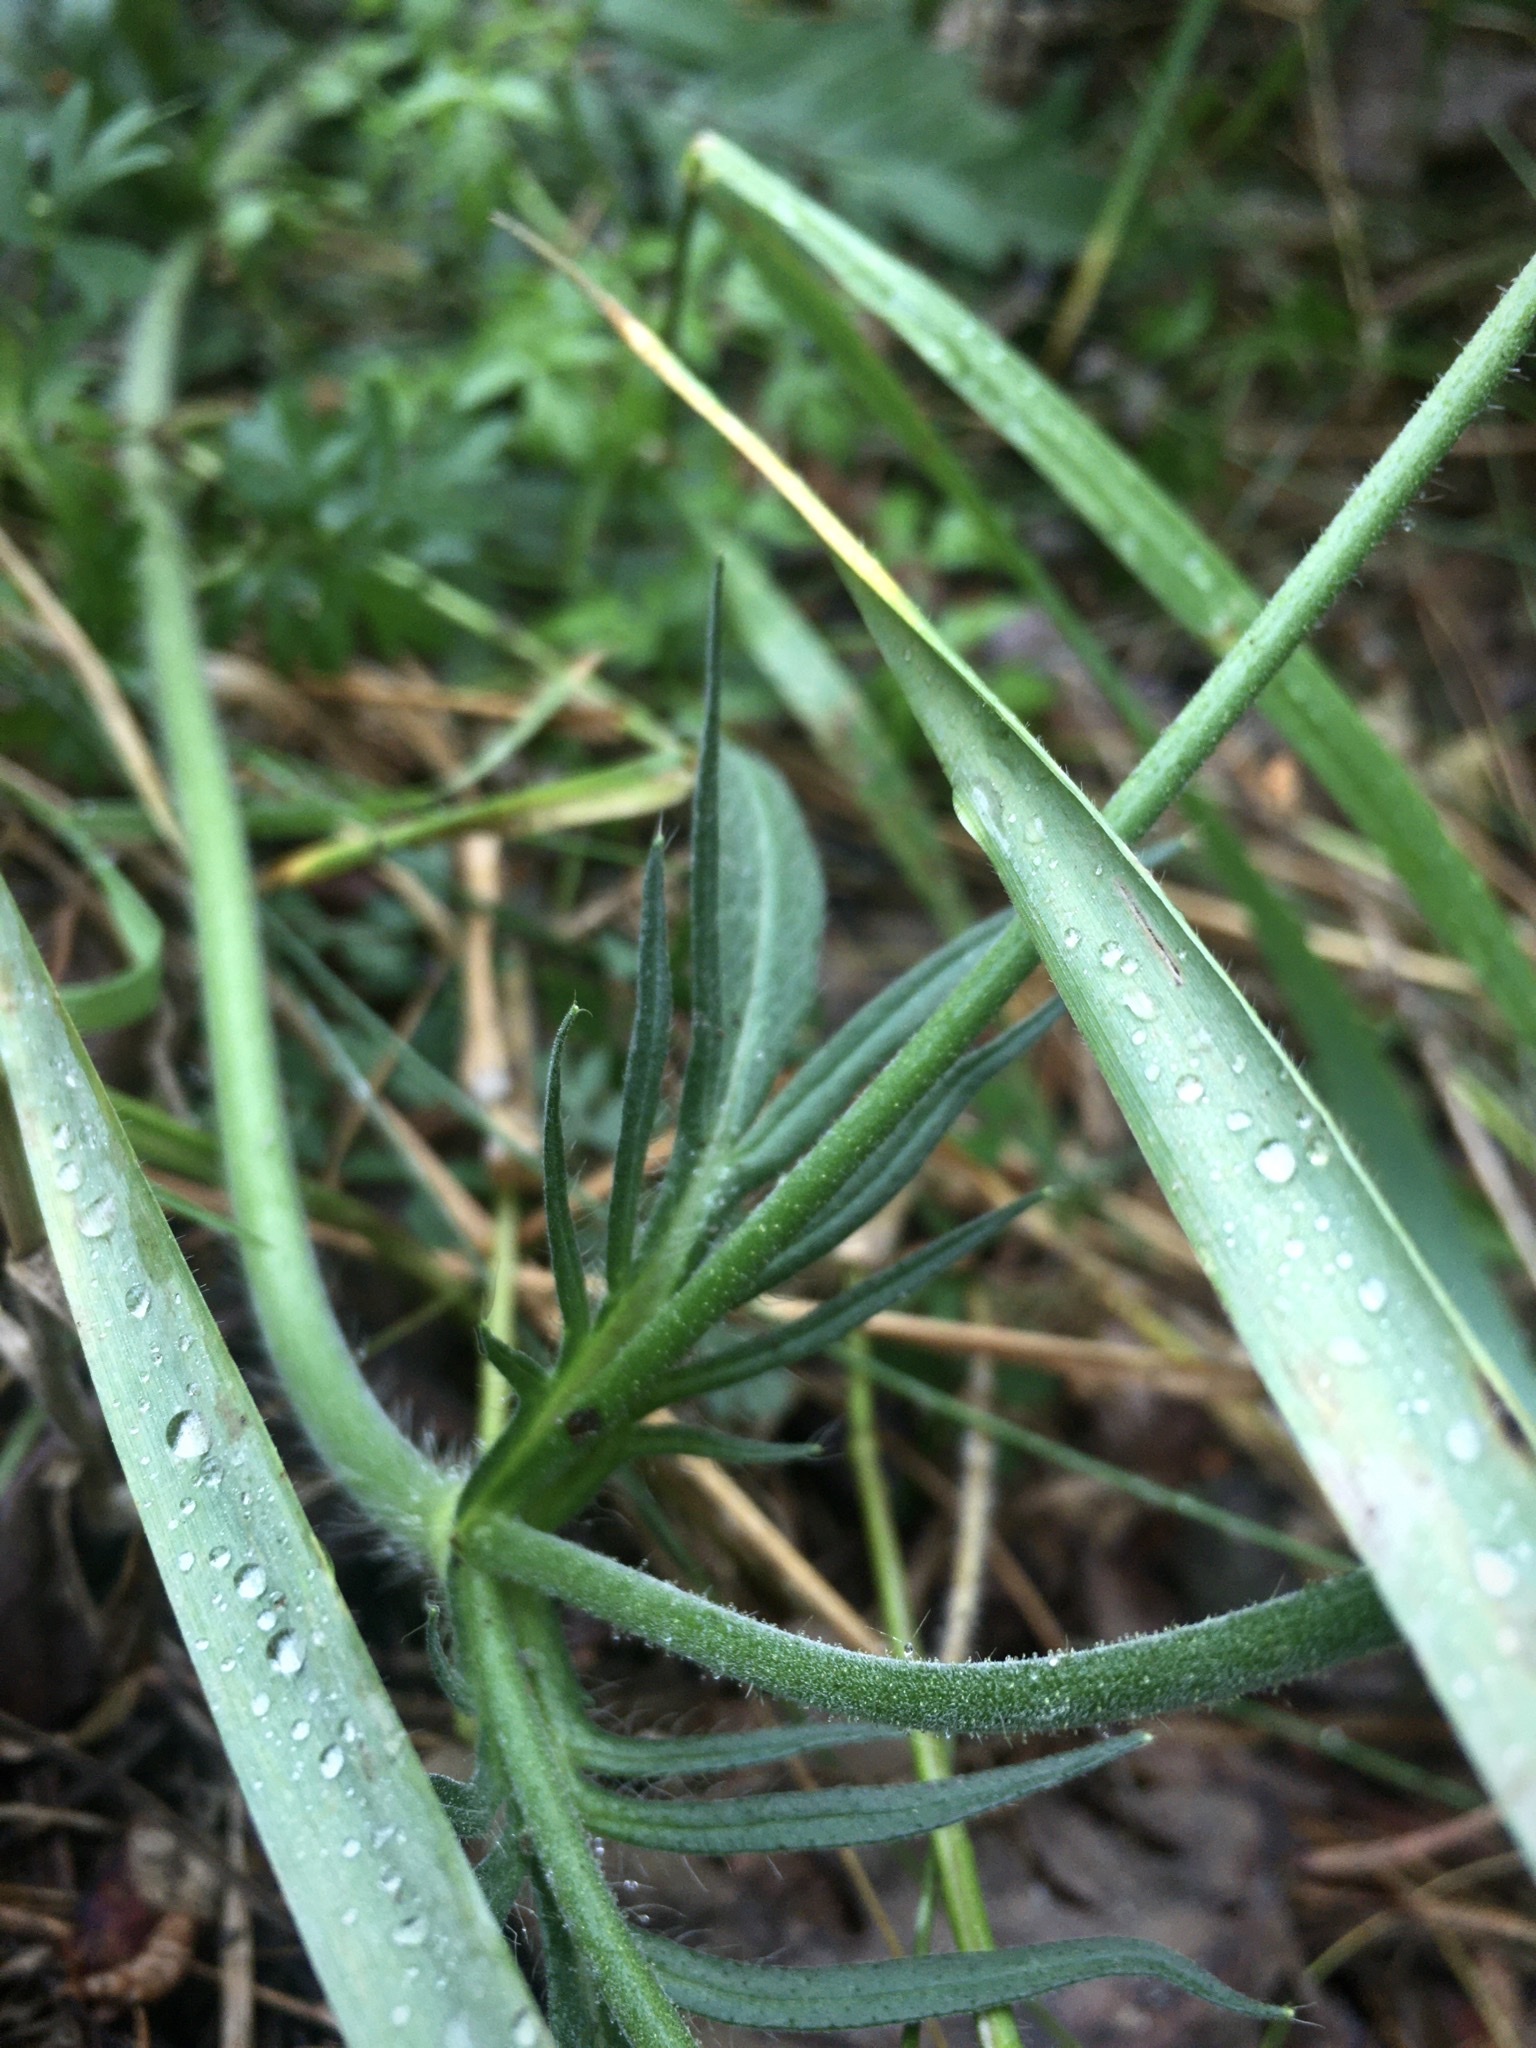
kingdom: Plantae
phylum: Tracheophyta
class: Magnoliopsida
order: Dipsacales
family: Caprifoliaceae
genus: Knautia
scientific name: Knautia arvensis
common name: Field scabiosa
